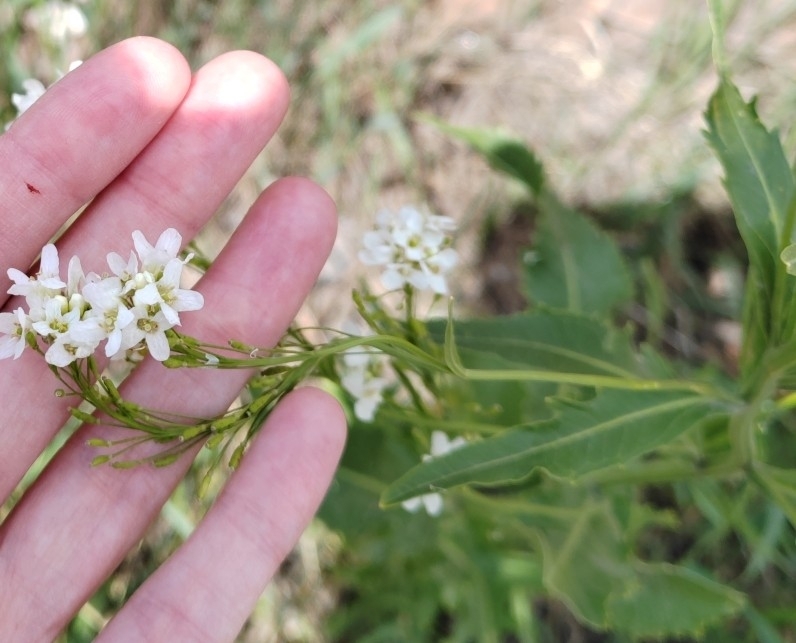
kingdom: Plantae
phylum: Tracheophyta
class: Magnoliopsida
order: Brassicales
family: Brassicaceae
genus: Armoracia
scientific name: Armoracia rusticana
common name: Horseradish
